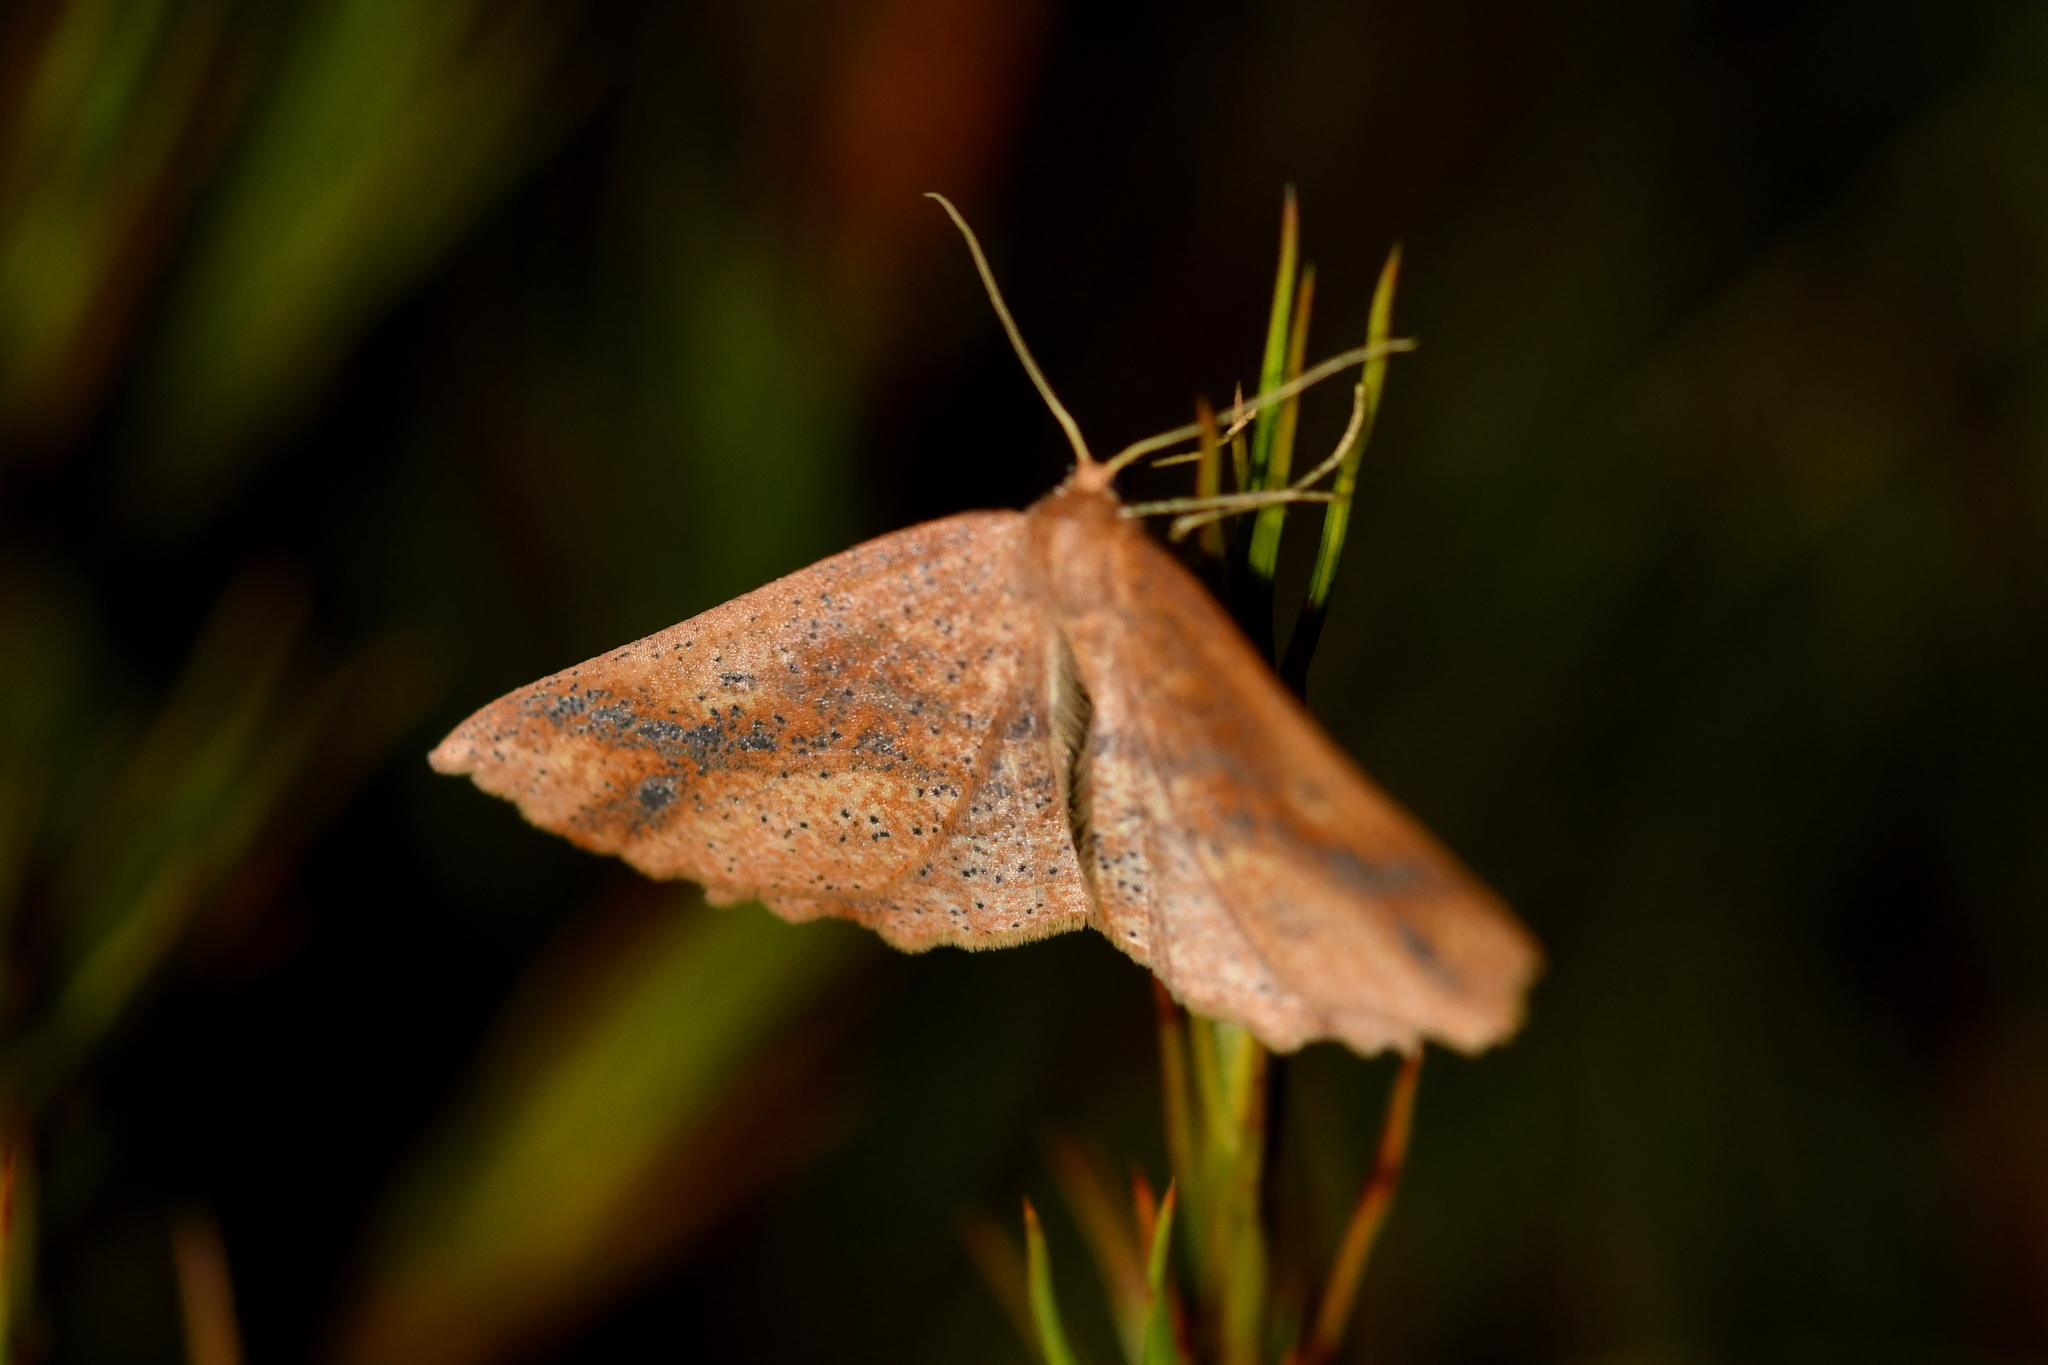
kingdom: Animalia
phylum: Arthropoda
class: Insecta
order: Lepidoptera
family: Geometridae
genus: Xyridacma
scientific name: Xyridacma veronicae
